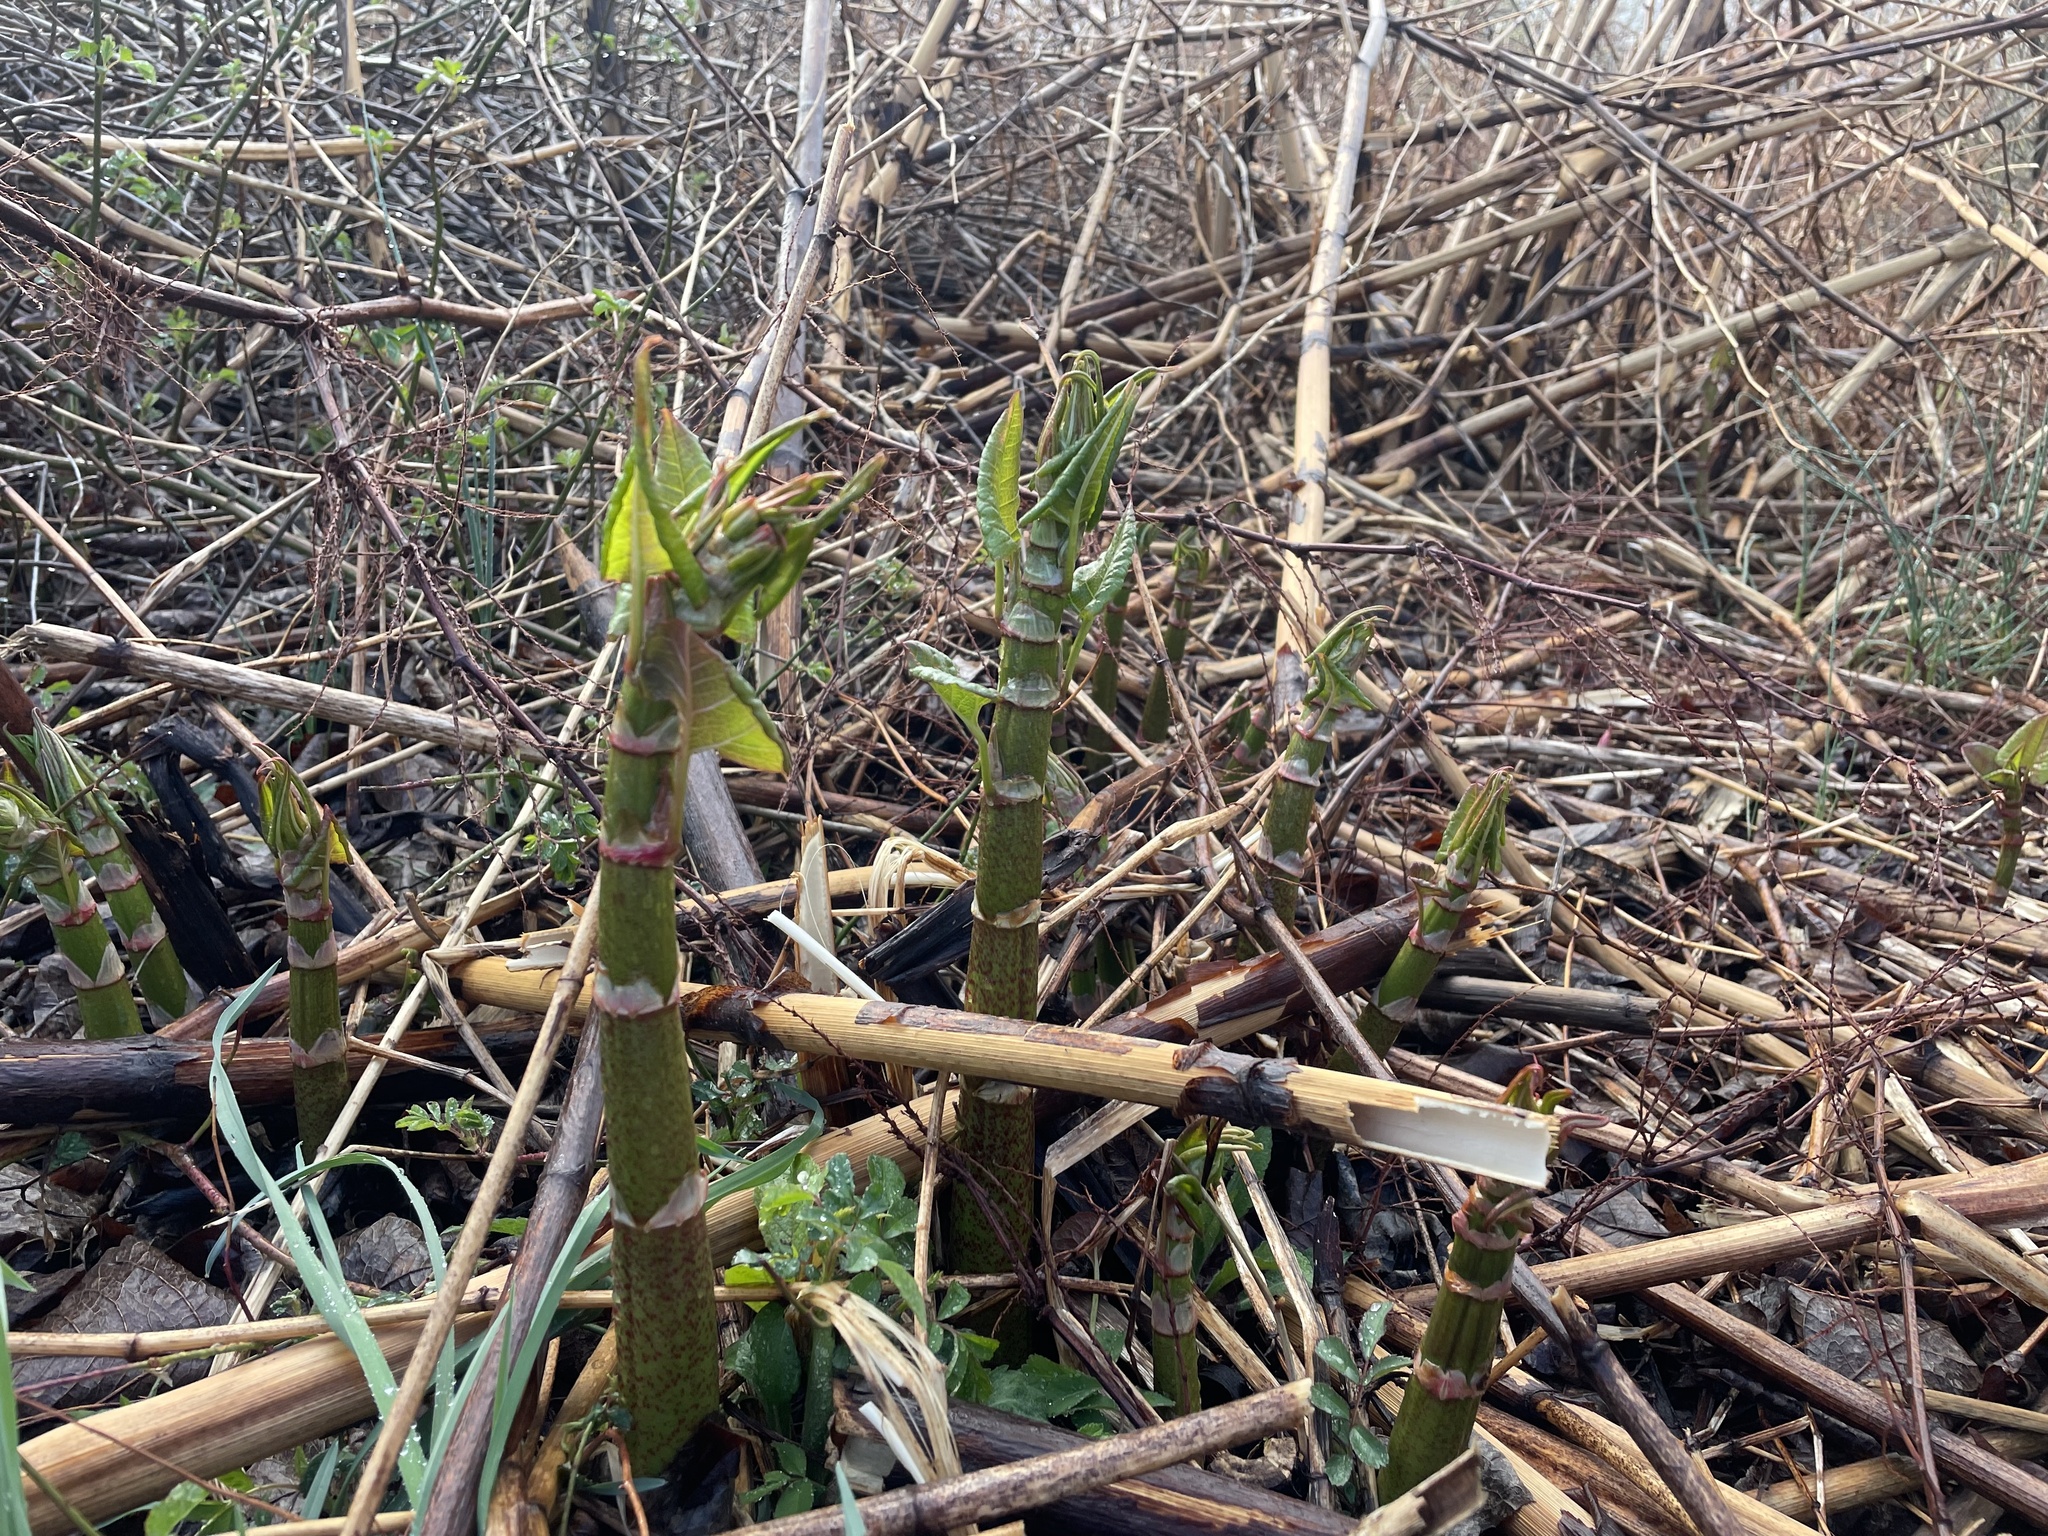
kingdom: Plantae
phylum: Tracheophyta
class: Magnoliopsida
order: Caryophyllales
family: Polygonaceae
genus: Reynoutria
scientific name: Reynoutria japonica
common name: Japanese knotweed
